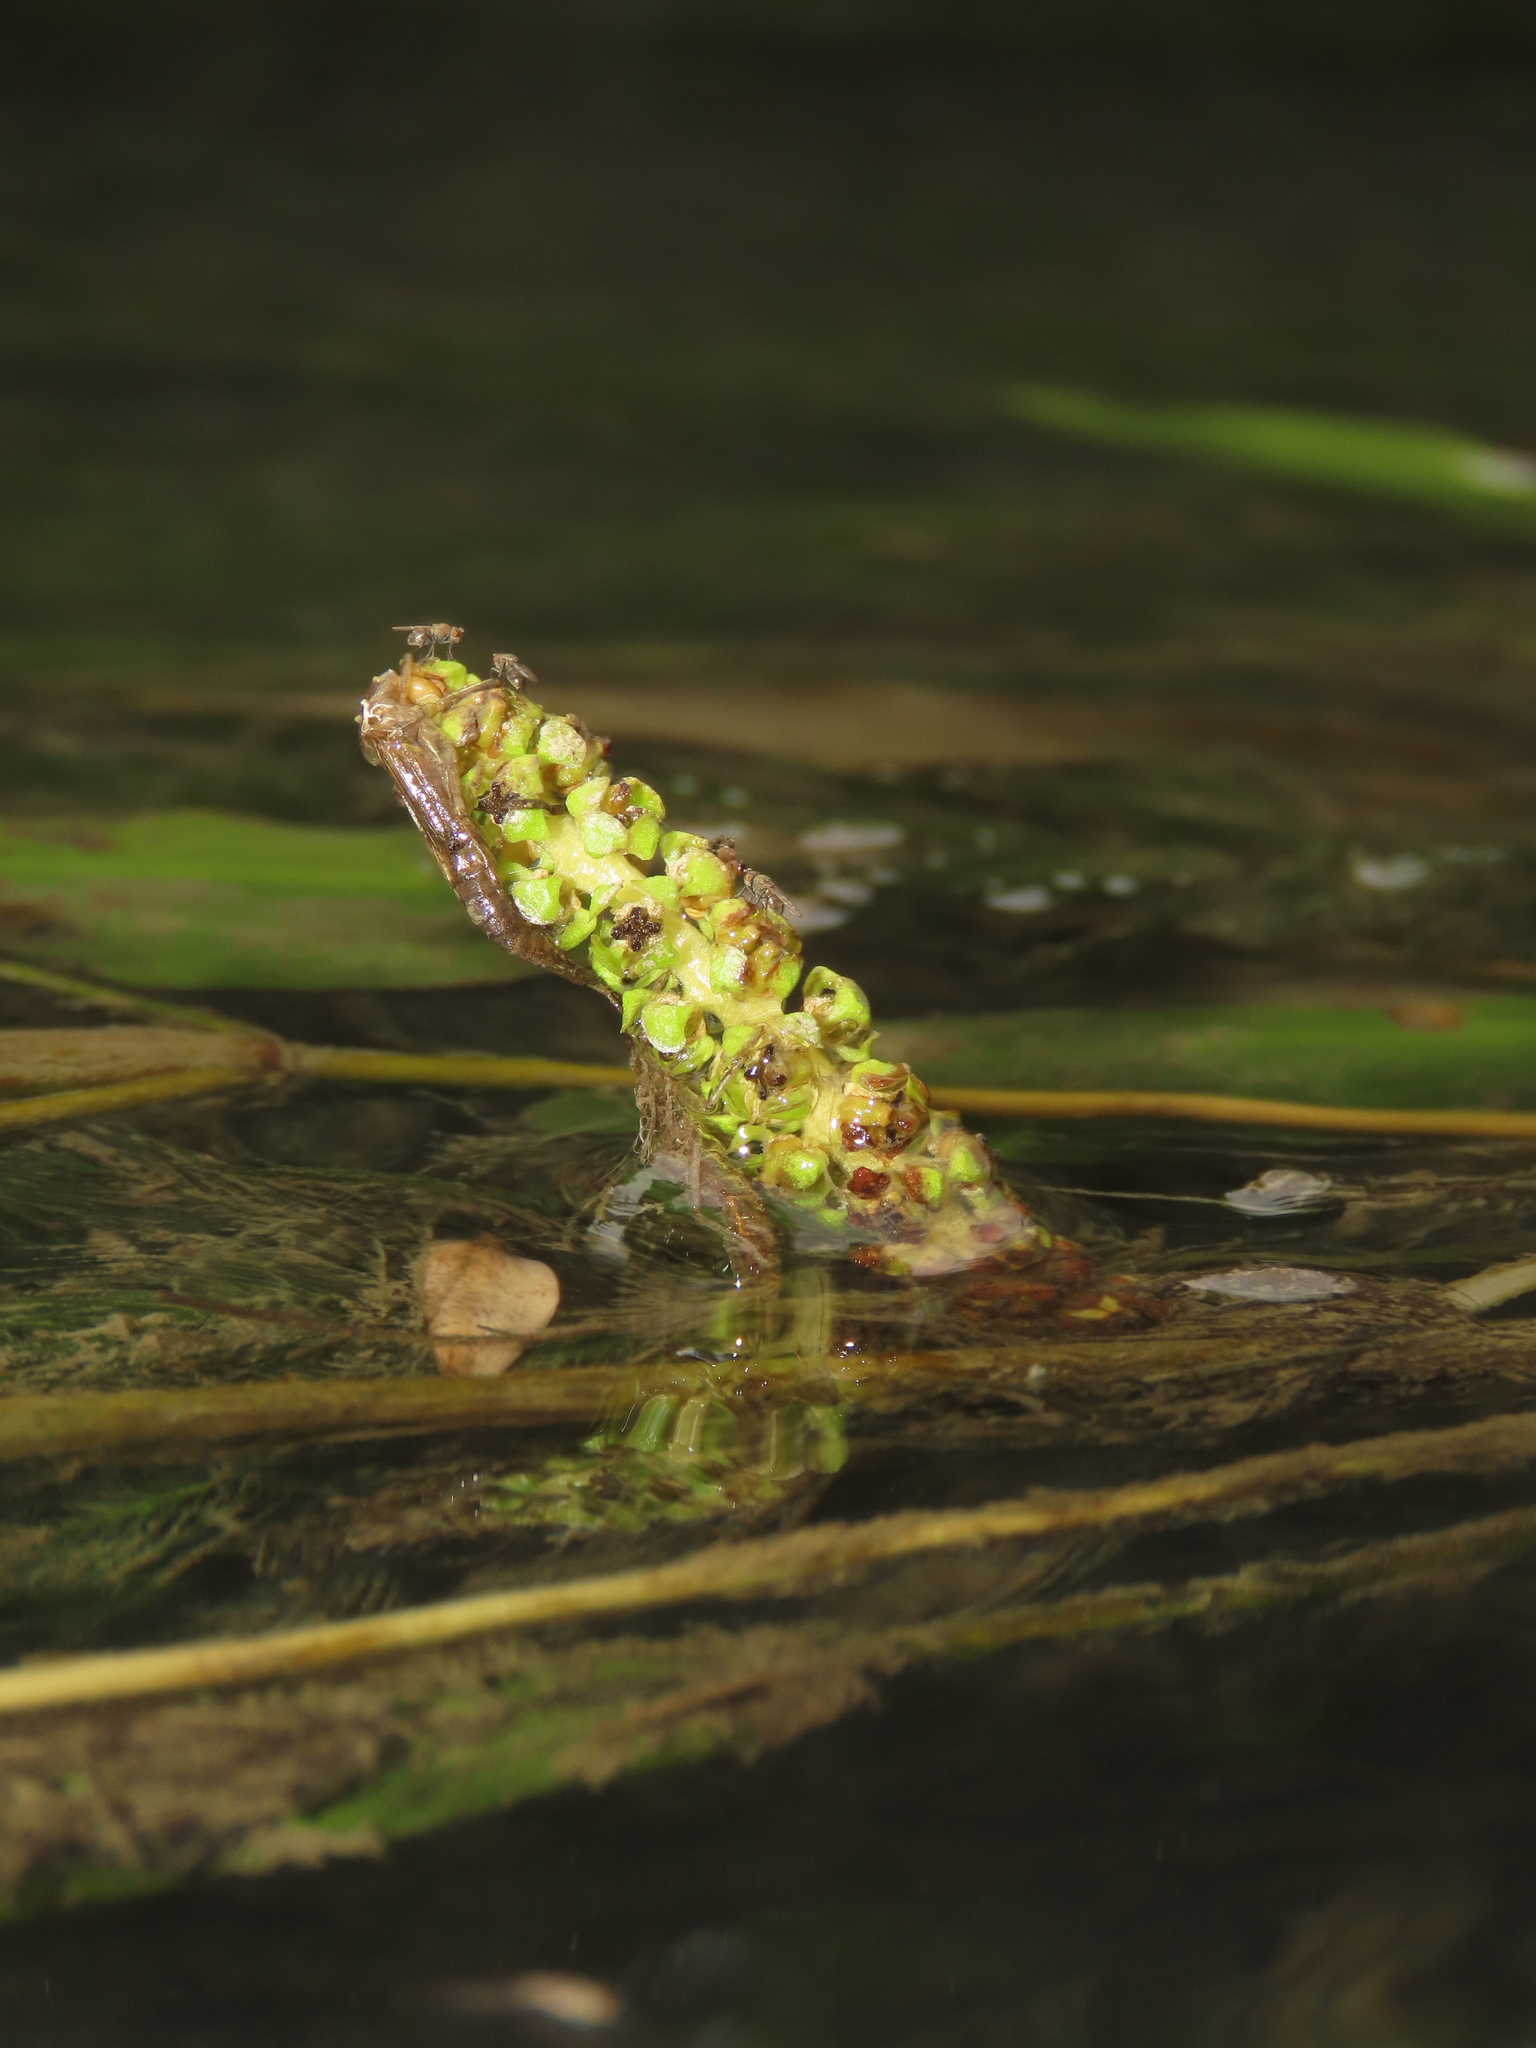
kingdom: Plantae
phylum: Tracheophyta
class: Liliopsida
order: Alismatales
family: Potamogetonaceae
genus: Potamogeton
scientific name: Potamogeton wrightii
